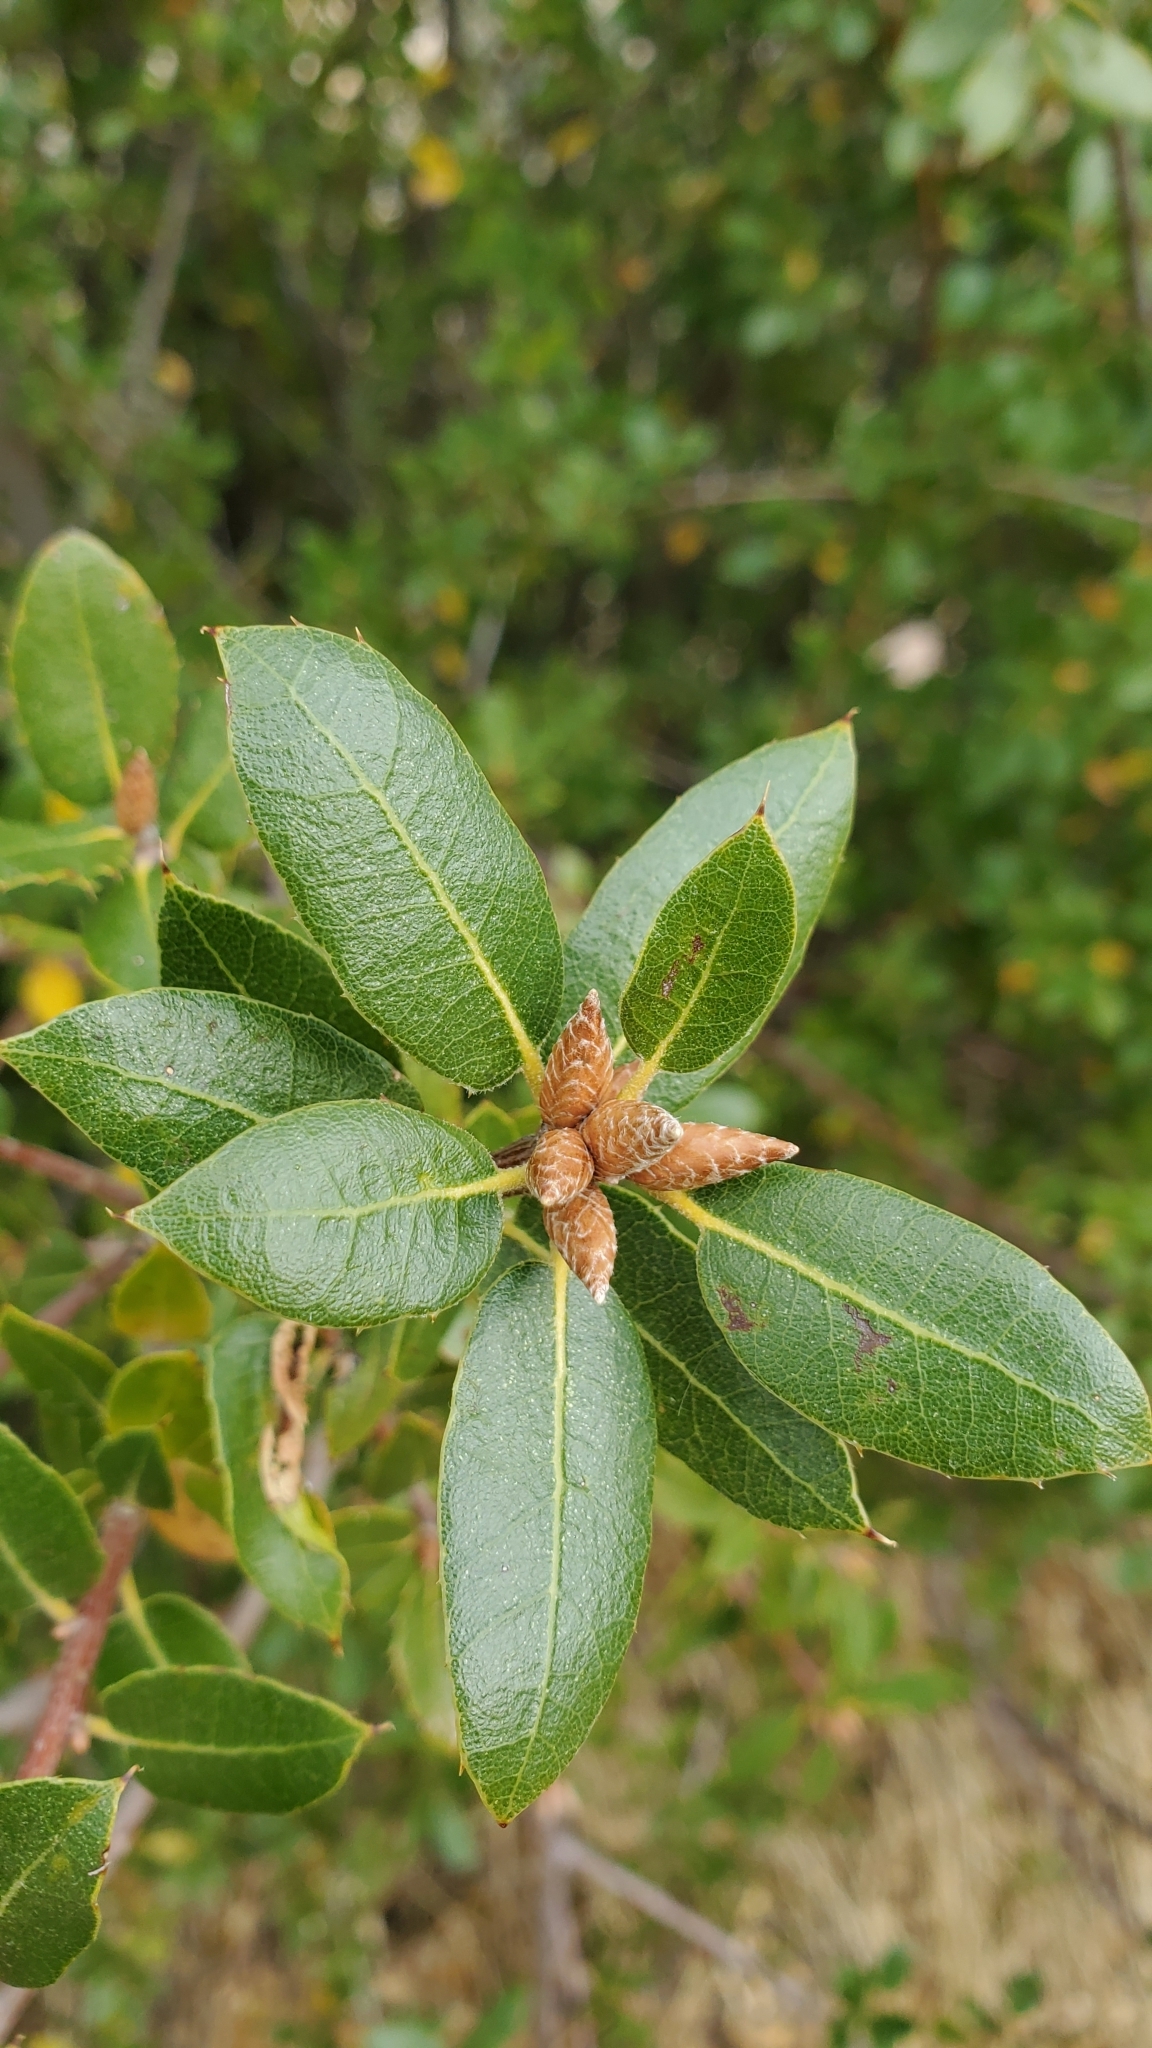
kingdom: Plantae
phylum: Tracheophyta
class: Magnoliopsida
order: Fagales
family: Fagaceae
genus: Quercus
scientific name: Quercus wislizeni
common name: Interior live oak
